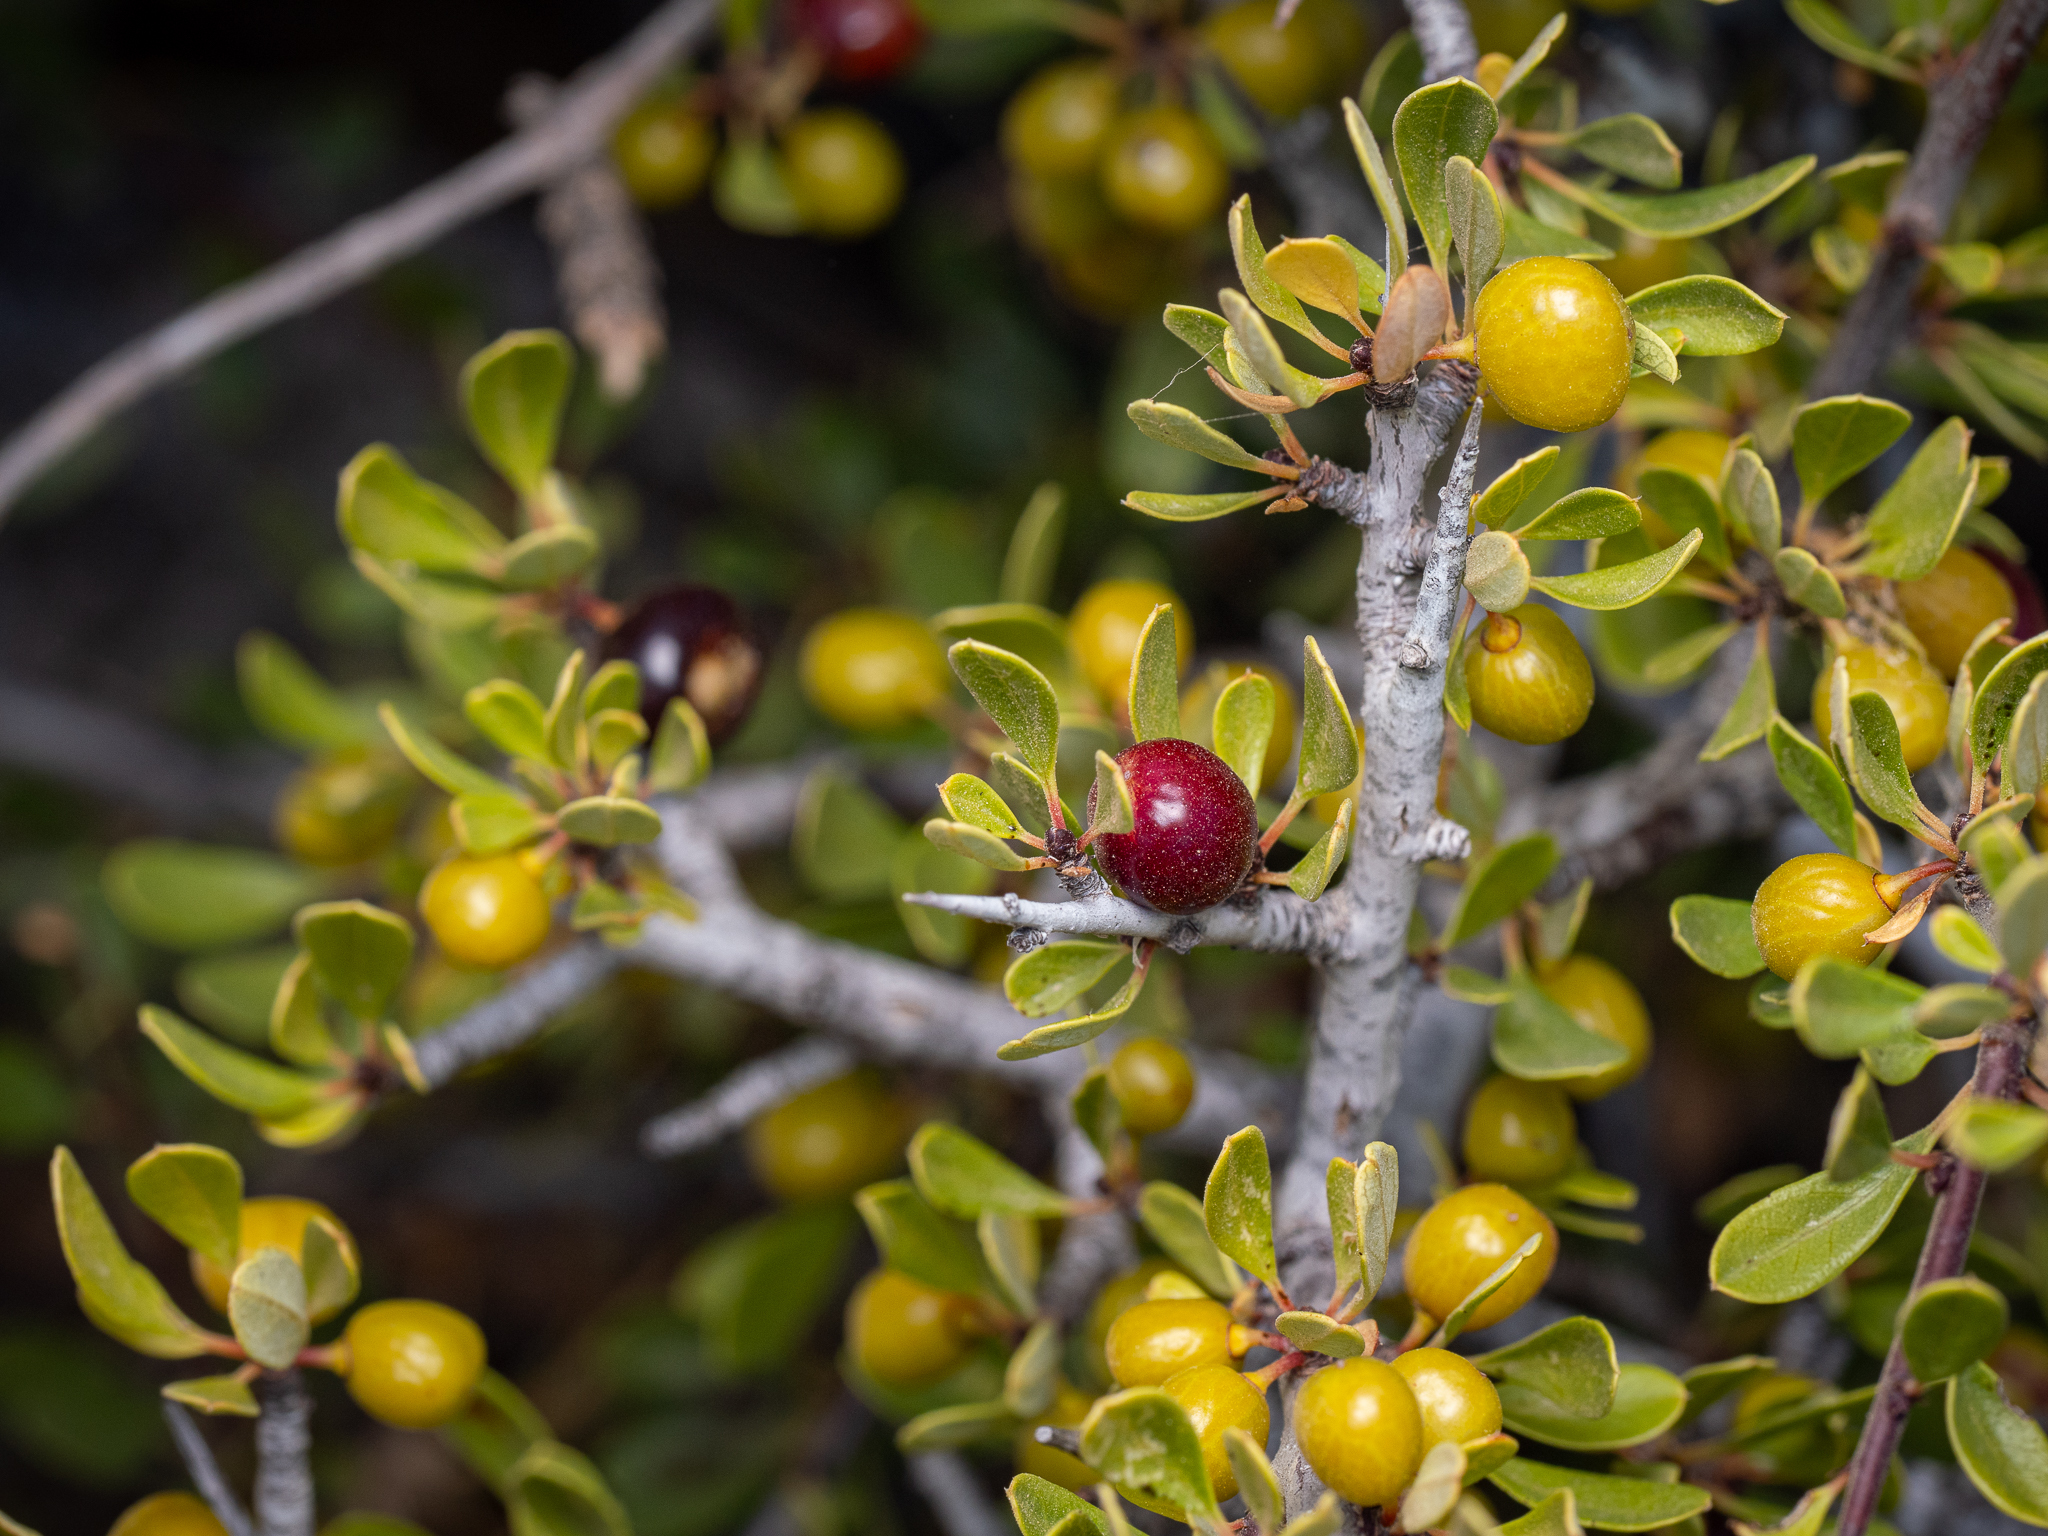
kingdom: Plantae
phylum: Tracheophyta
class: Magnoliopsida
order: Rosales
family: Rhamnaceae
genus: Rhamnus
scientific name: Rhamnus oleoides
